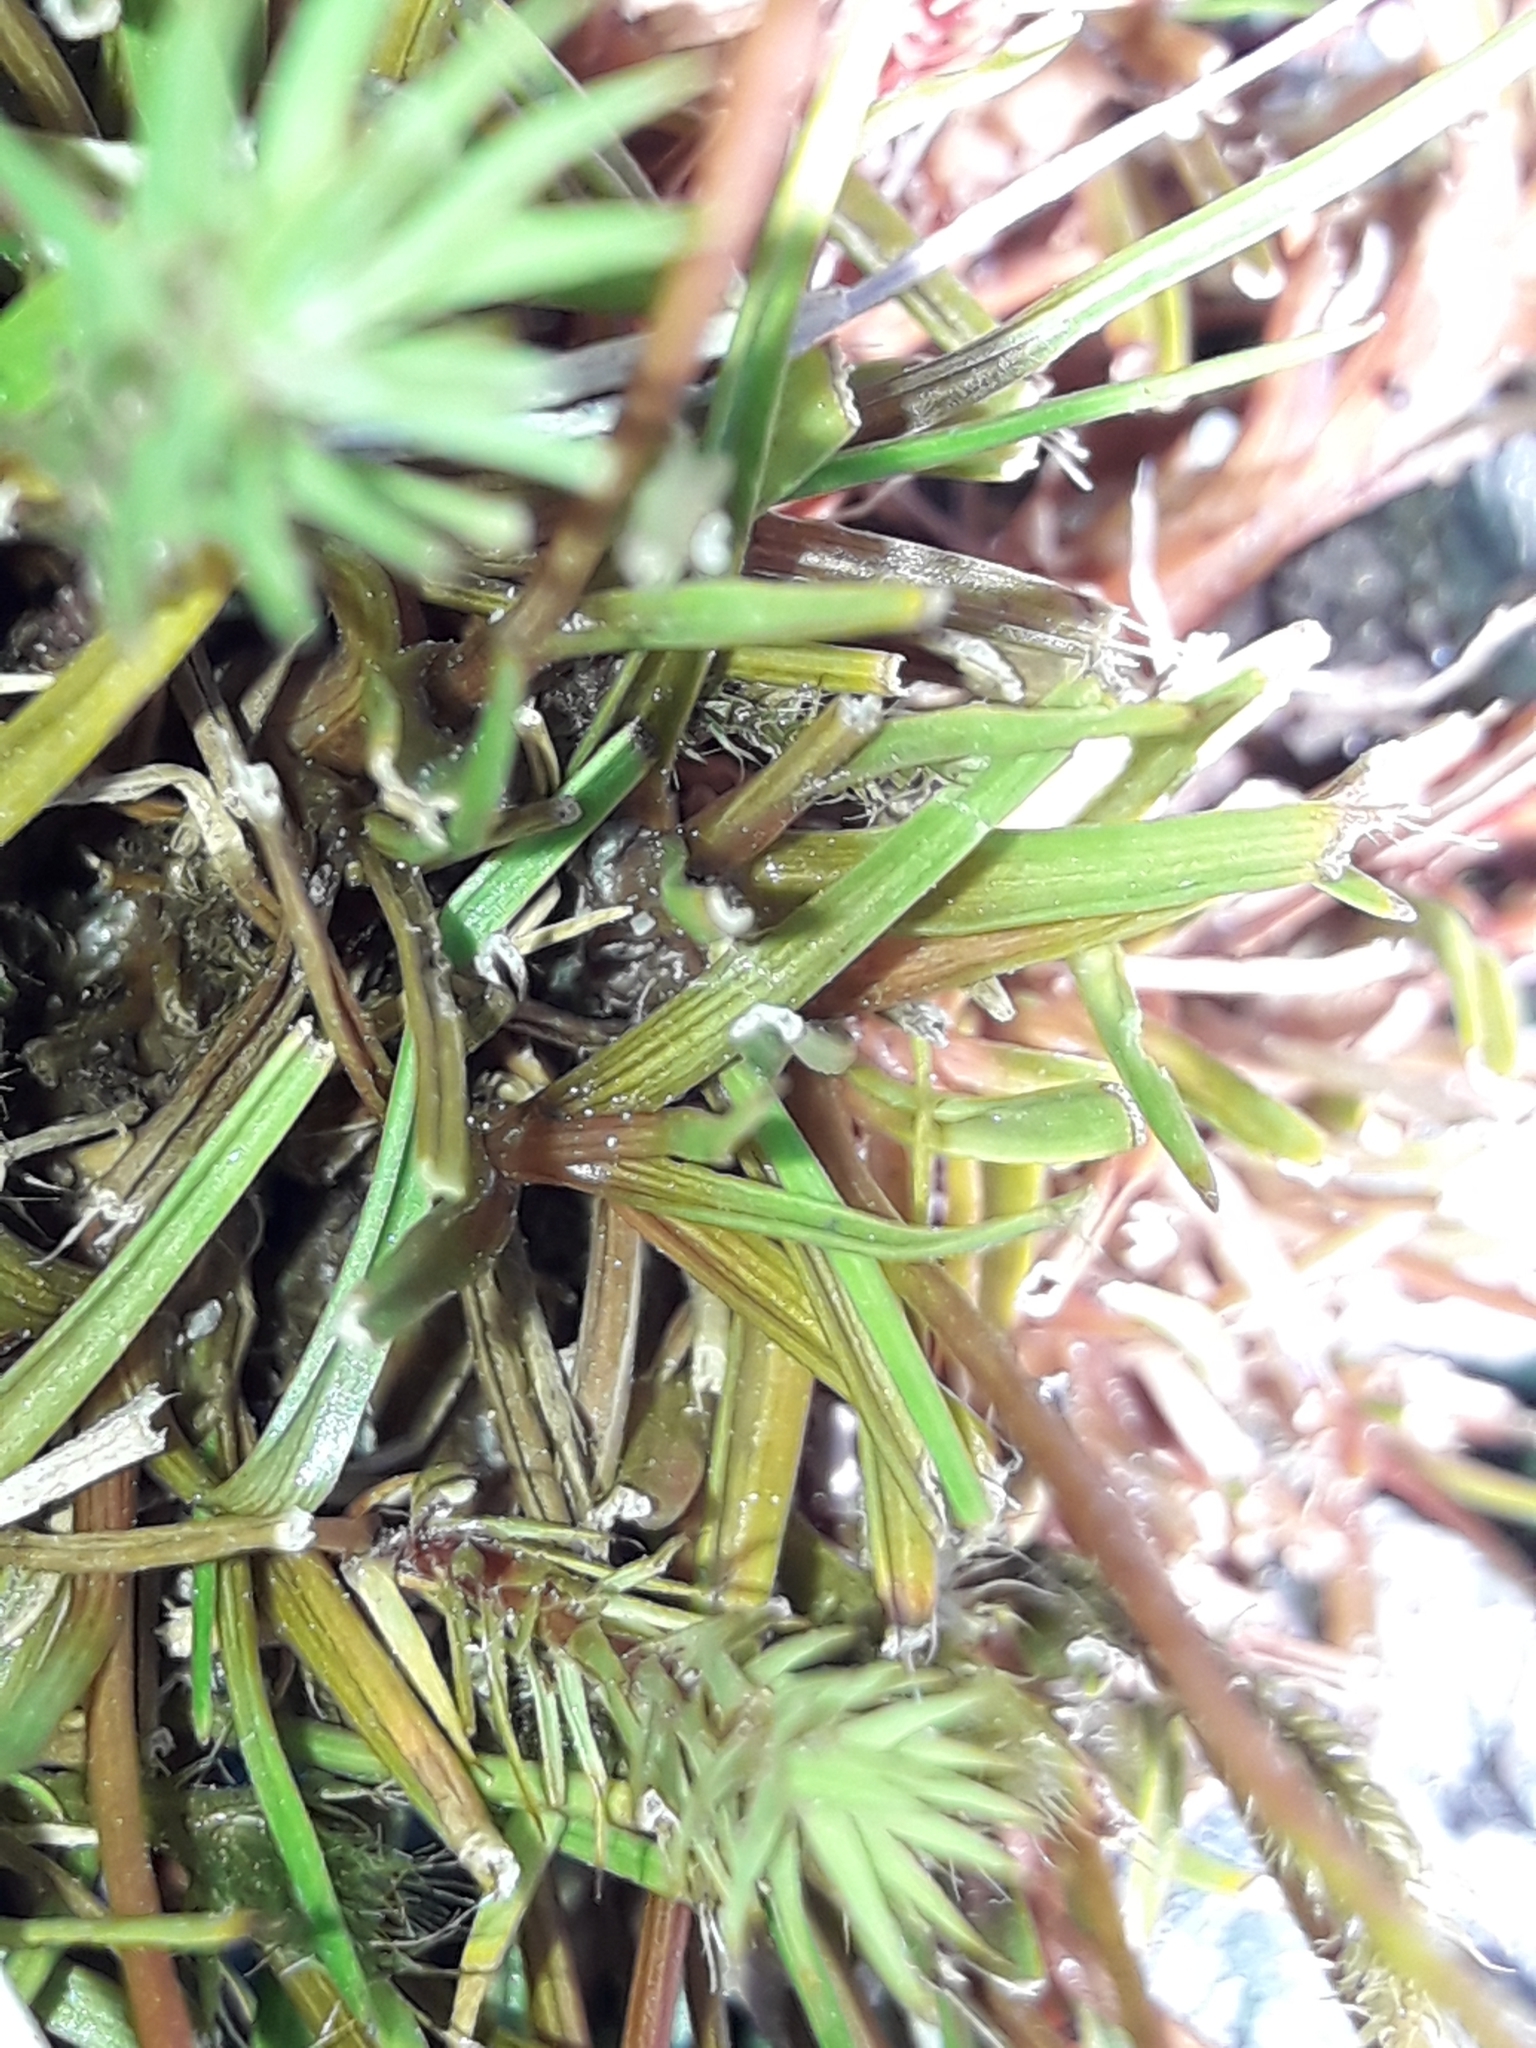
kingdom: Plantae
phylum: Tracheophyta
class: Liliopsida
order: Poales
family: Juncaceae
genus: Juncus
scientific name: Juncus antarcticus
